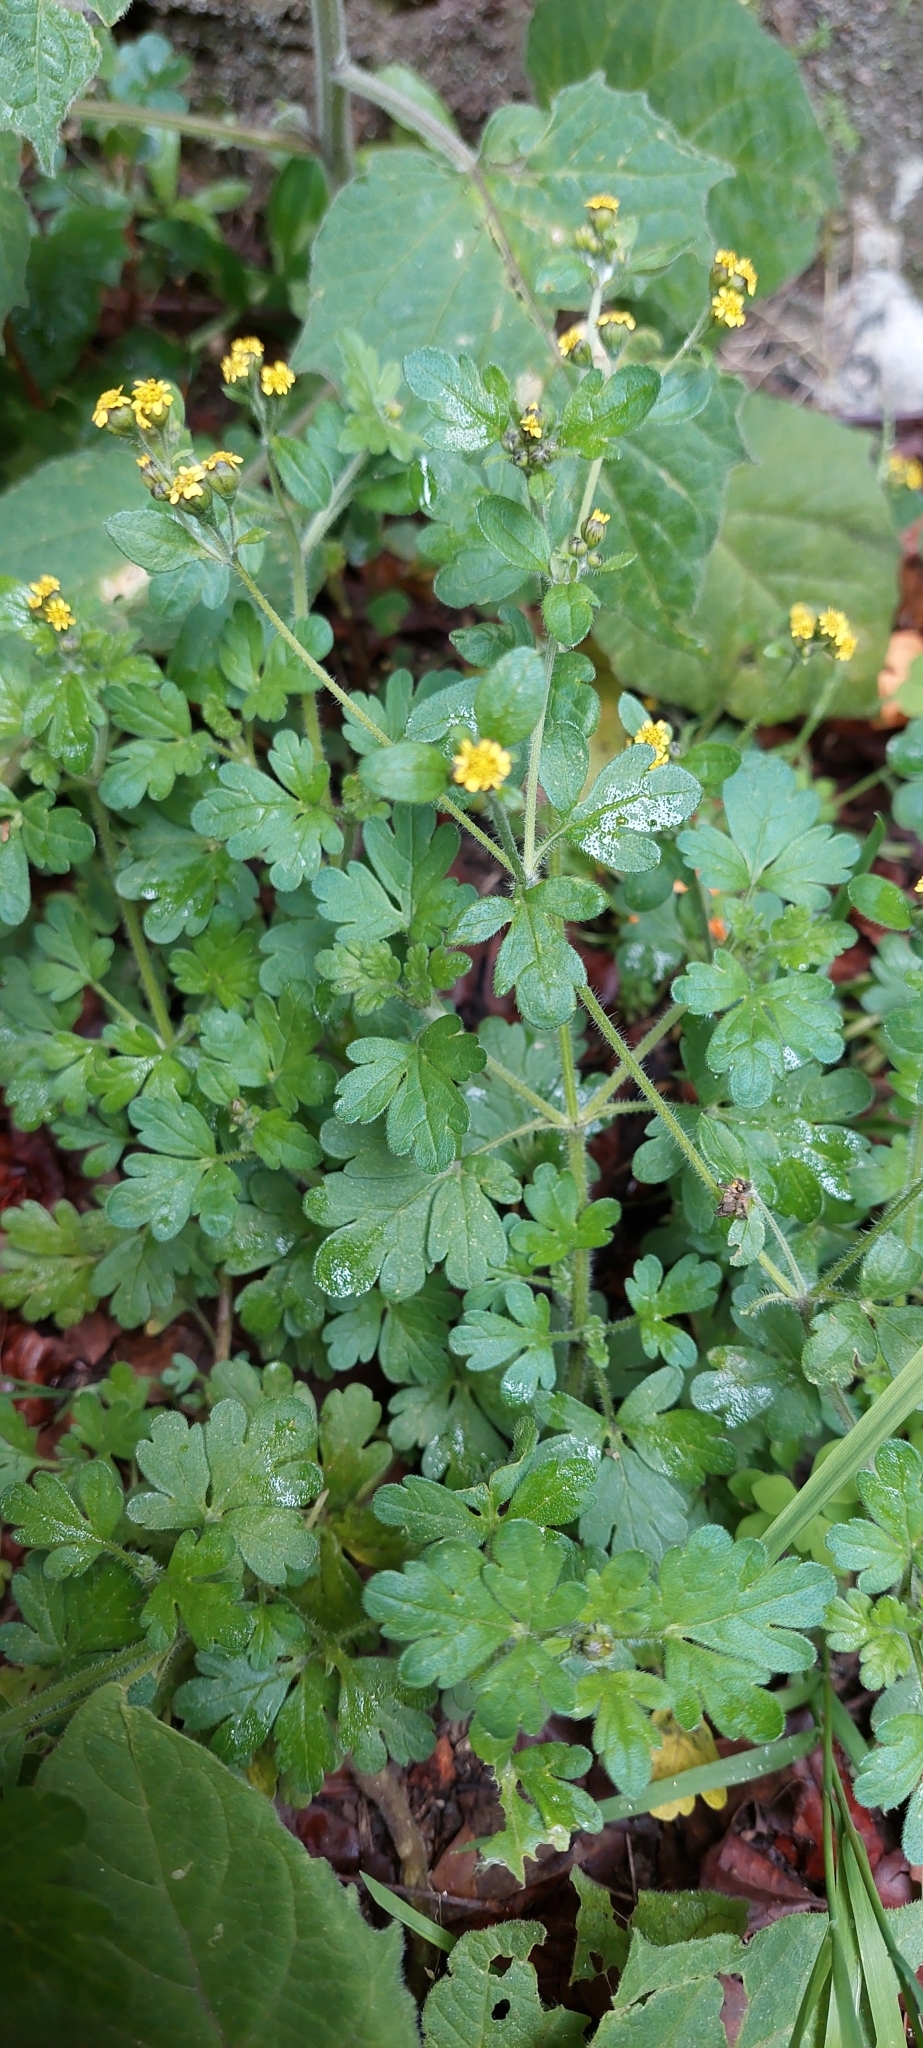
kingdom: Plantae
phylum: Tracheophyta
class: Magnoliopsida
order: Asterales
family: Asteraceae
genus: Villanova
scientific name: Villanova oppositifolia
